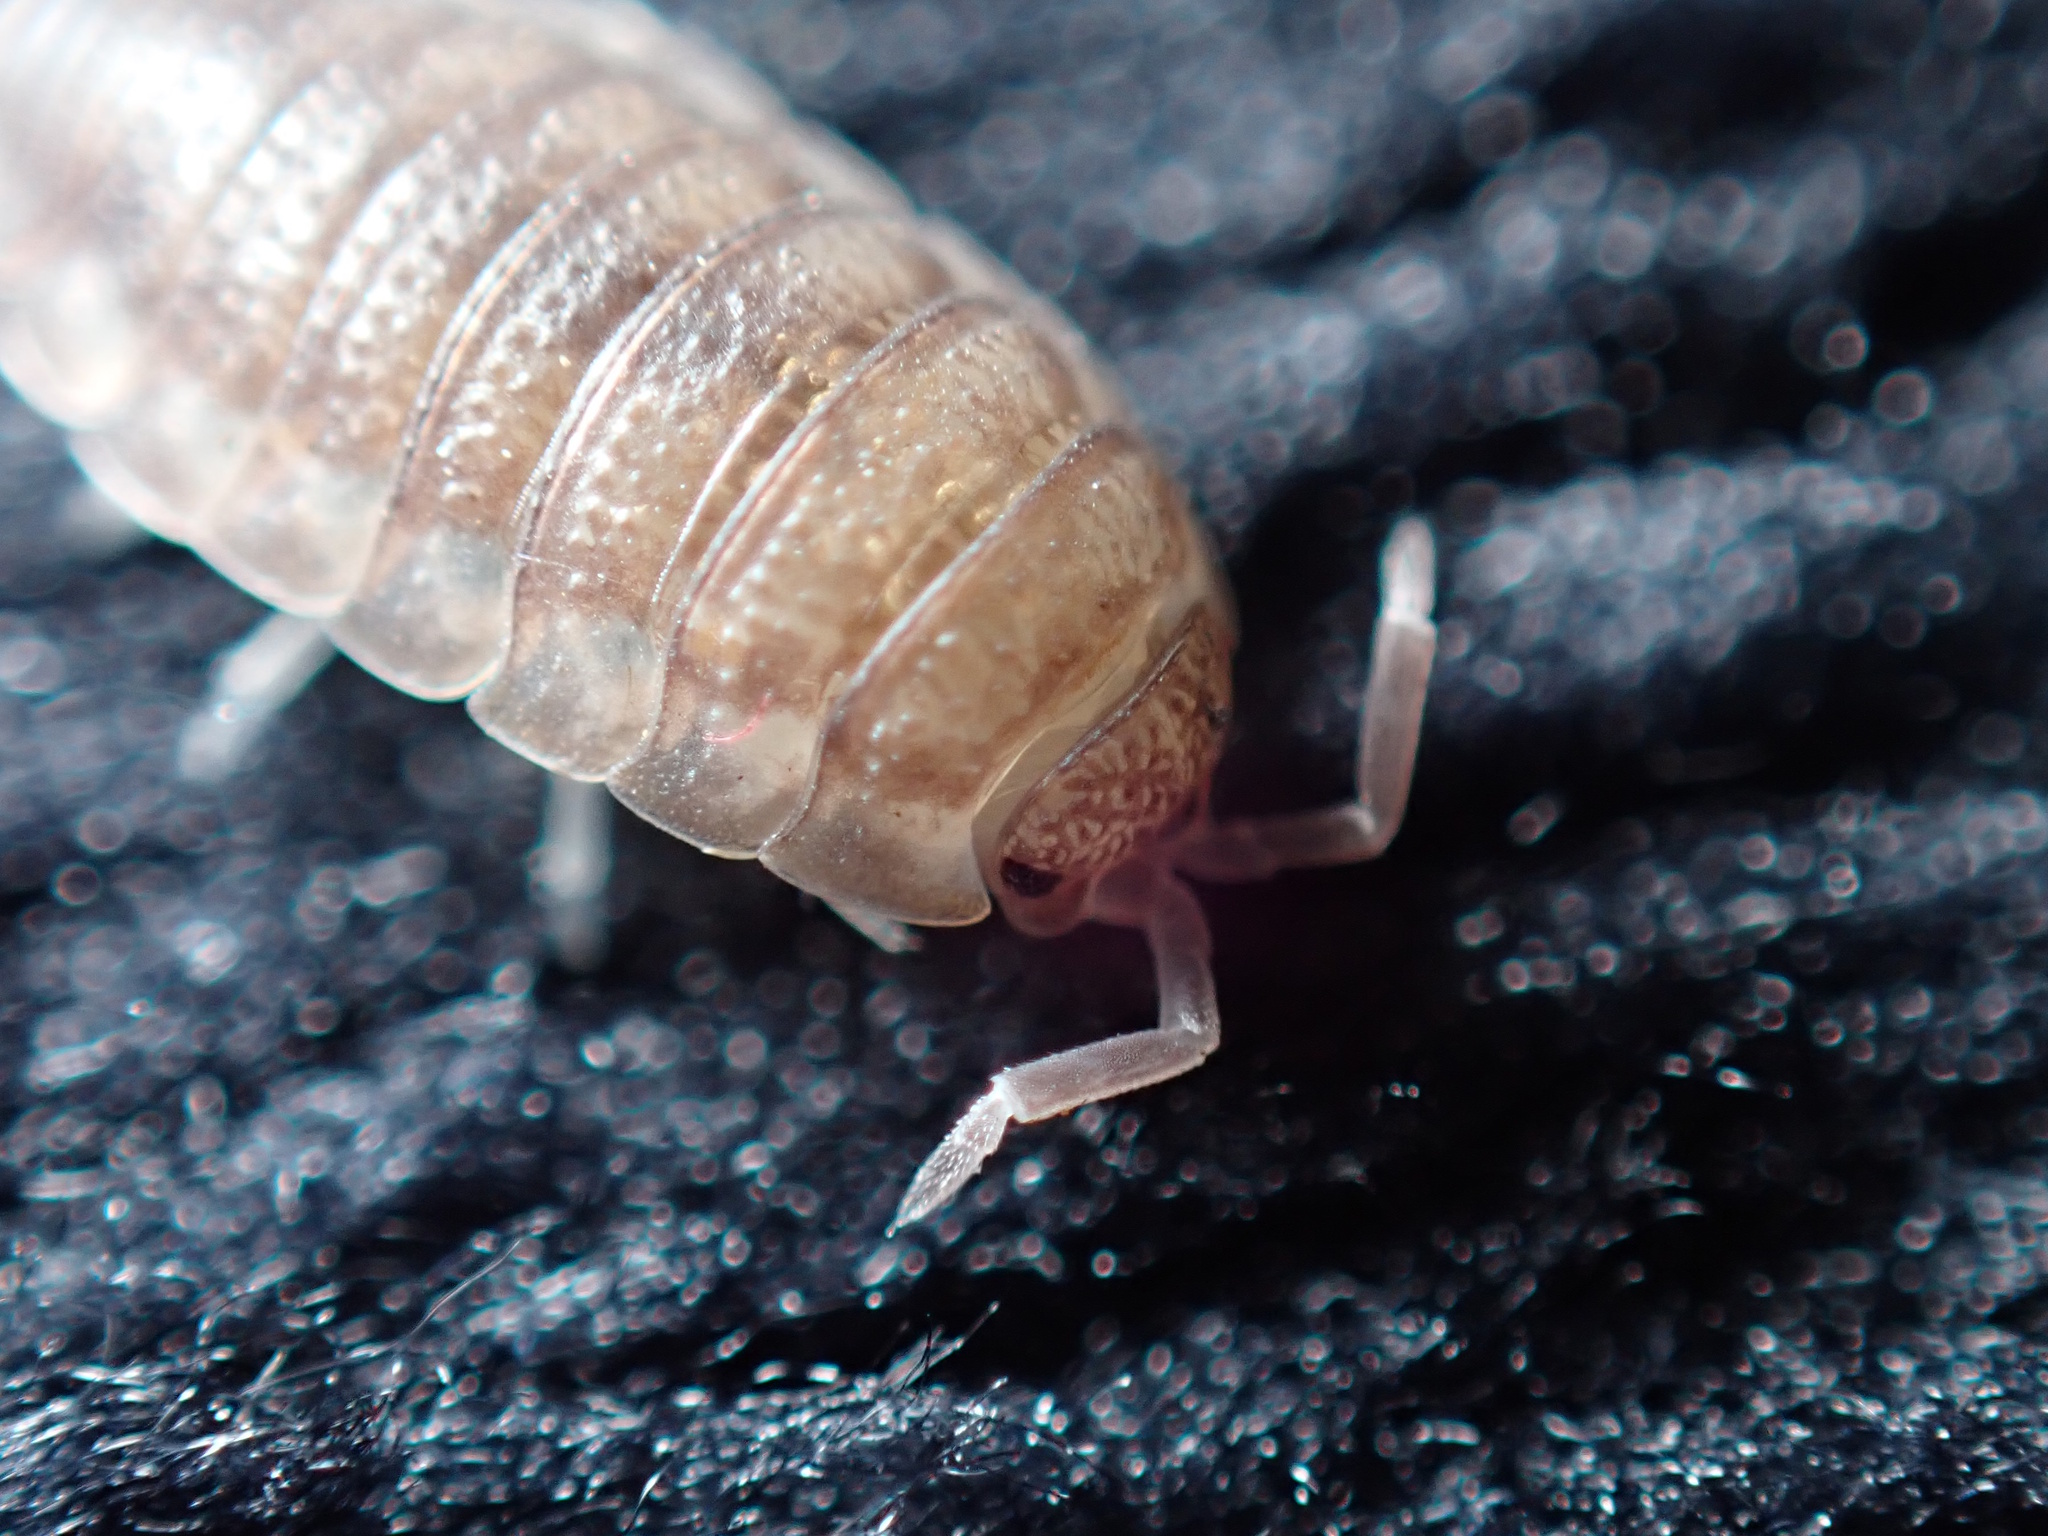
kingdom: Animalia
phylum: Arthropoda
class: Malacostraca
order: Isopoda
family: Porcellionidae
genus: Porcellio
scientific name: Porcellio scaber
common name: Common rough woodlouse
